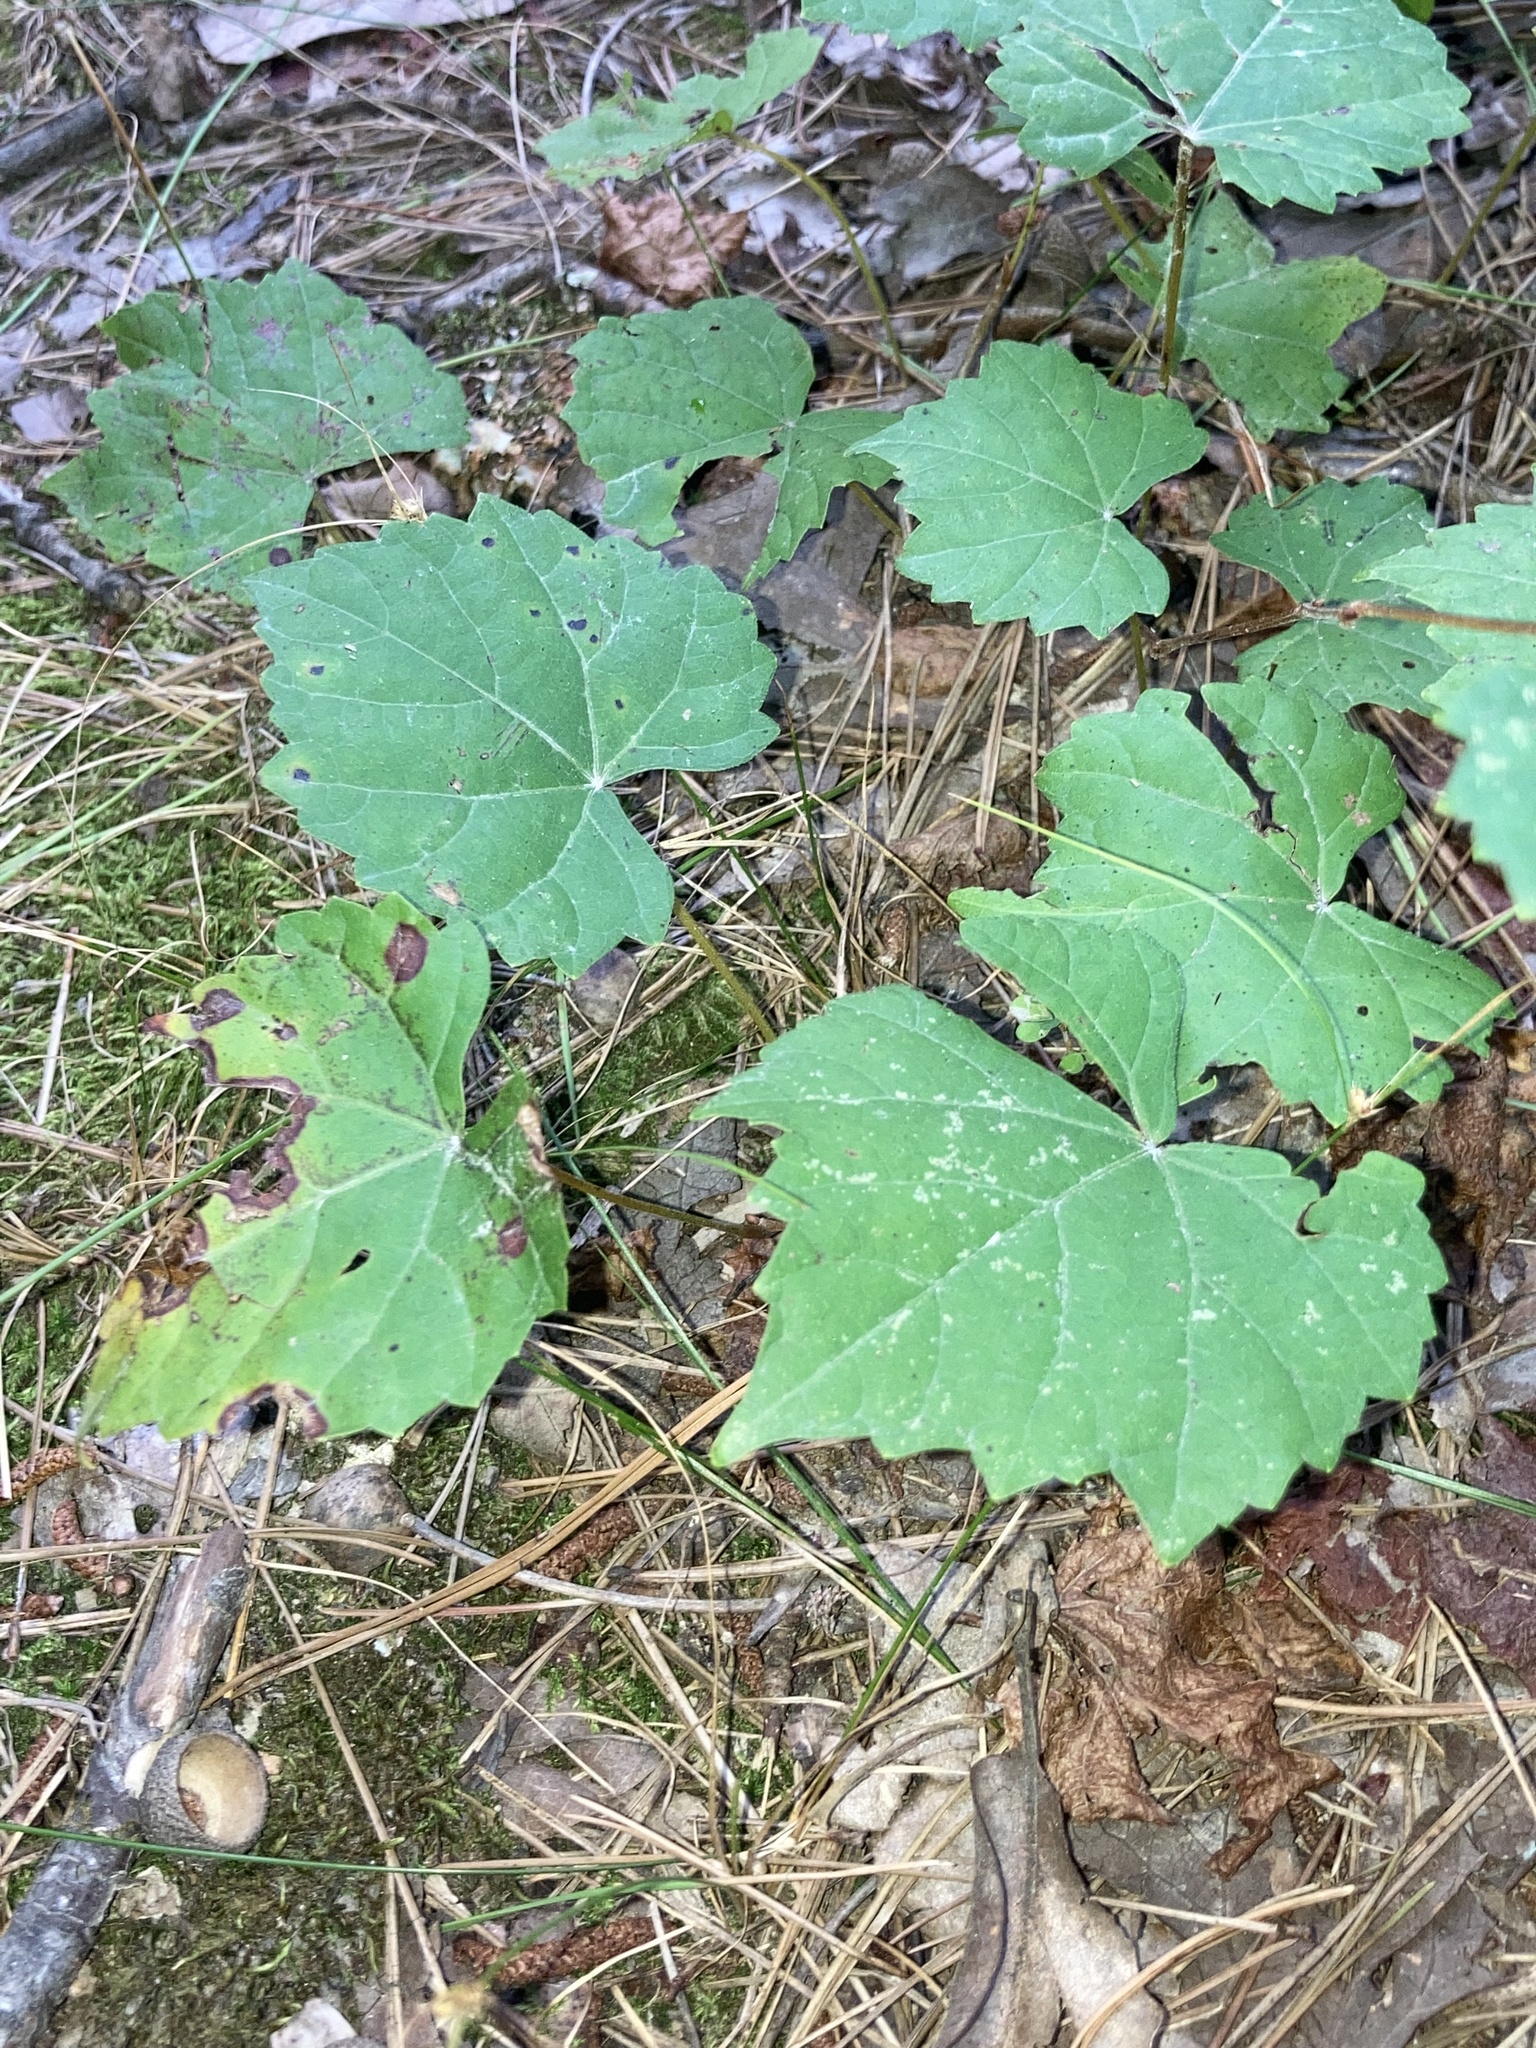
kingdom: Plantae
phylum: Tracheophyta
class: Magnoliopsida
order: Vitales
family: Vitaceae
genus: Vitis
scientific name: Vitis rotundifolia
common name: Muscadine grape
